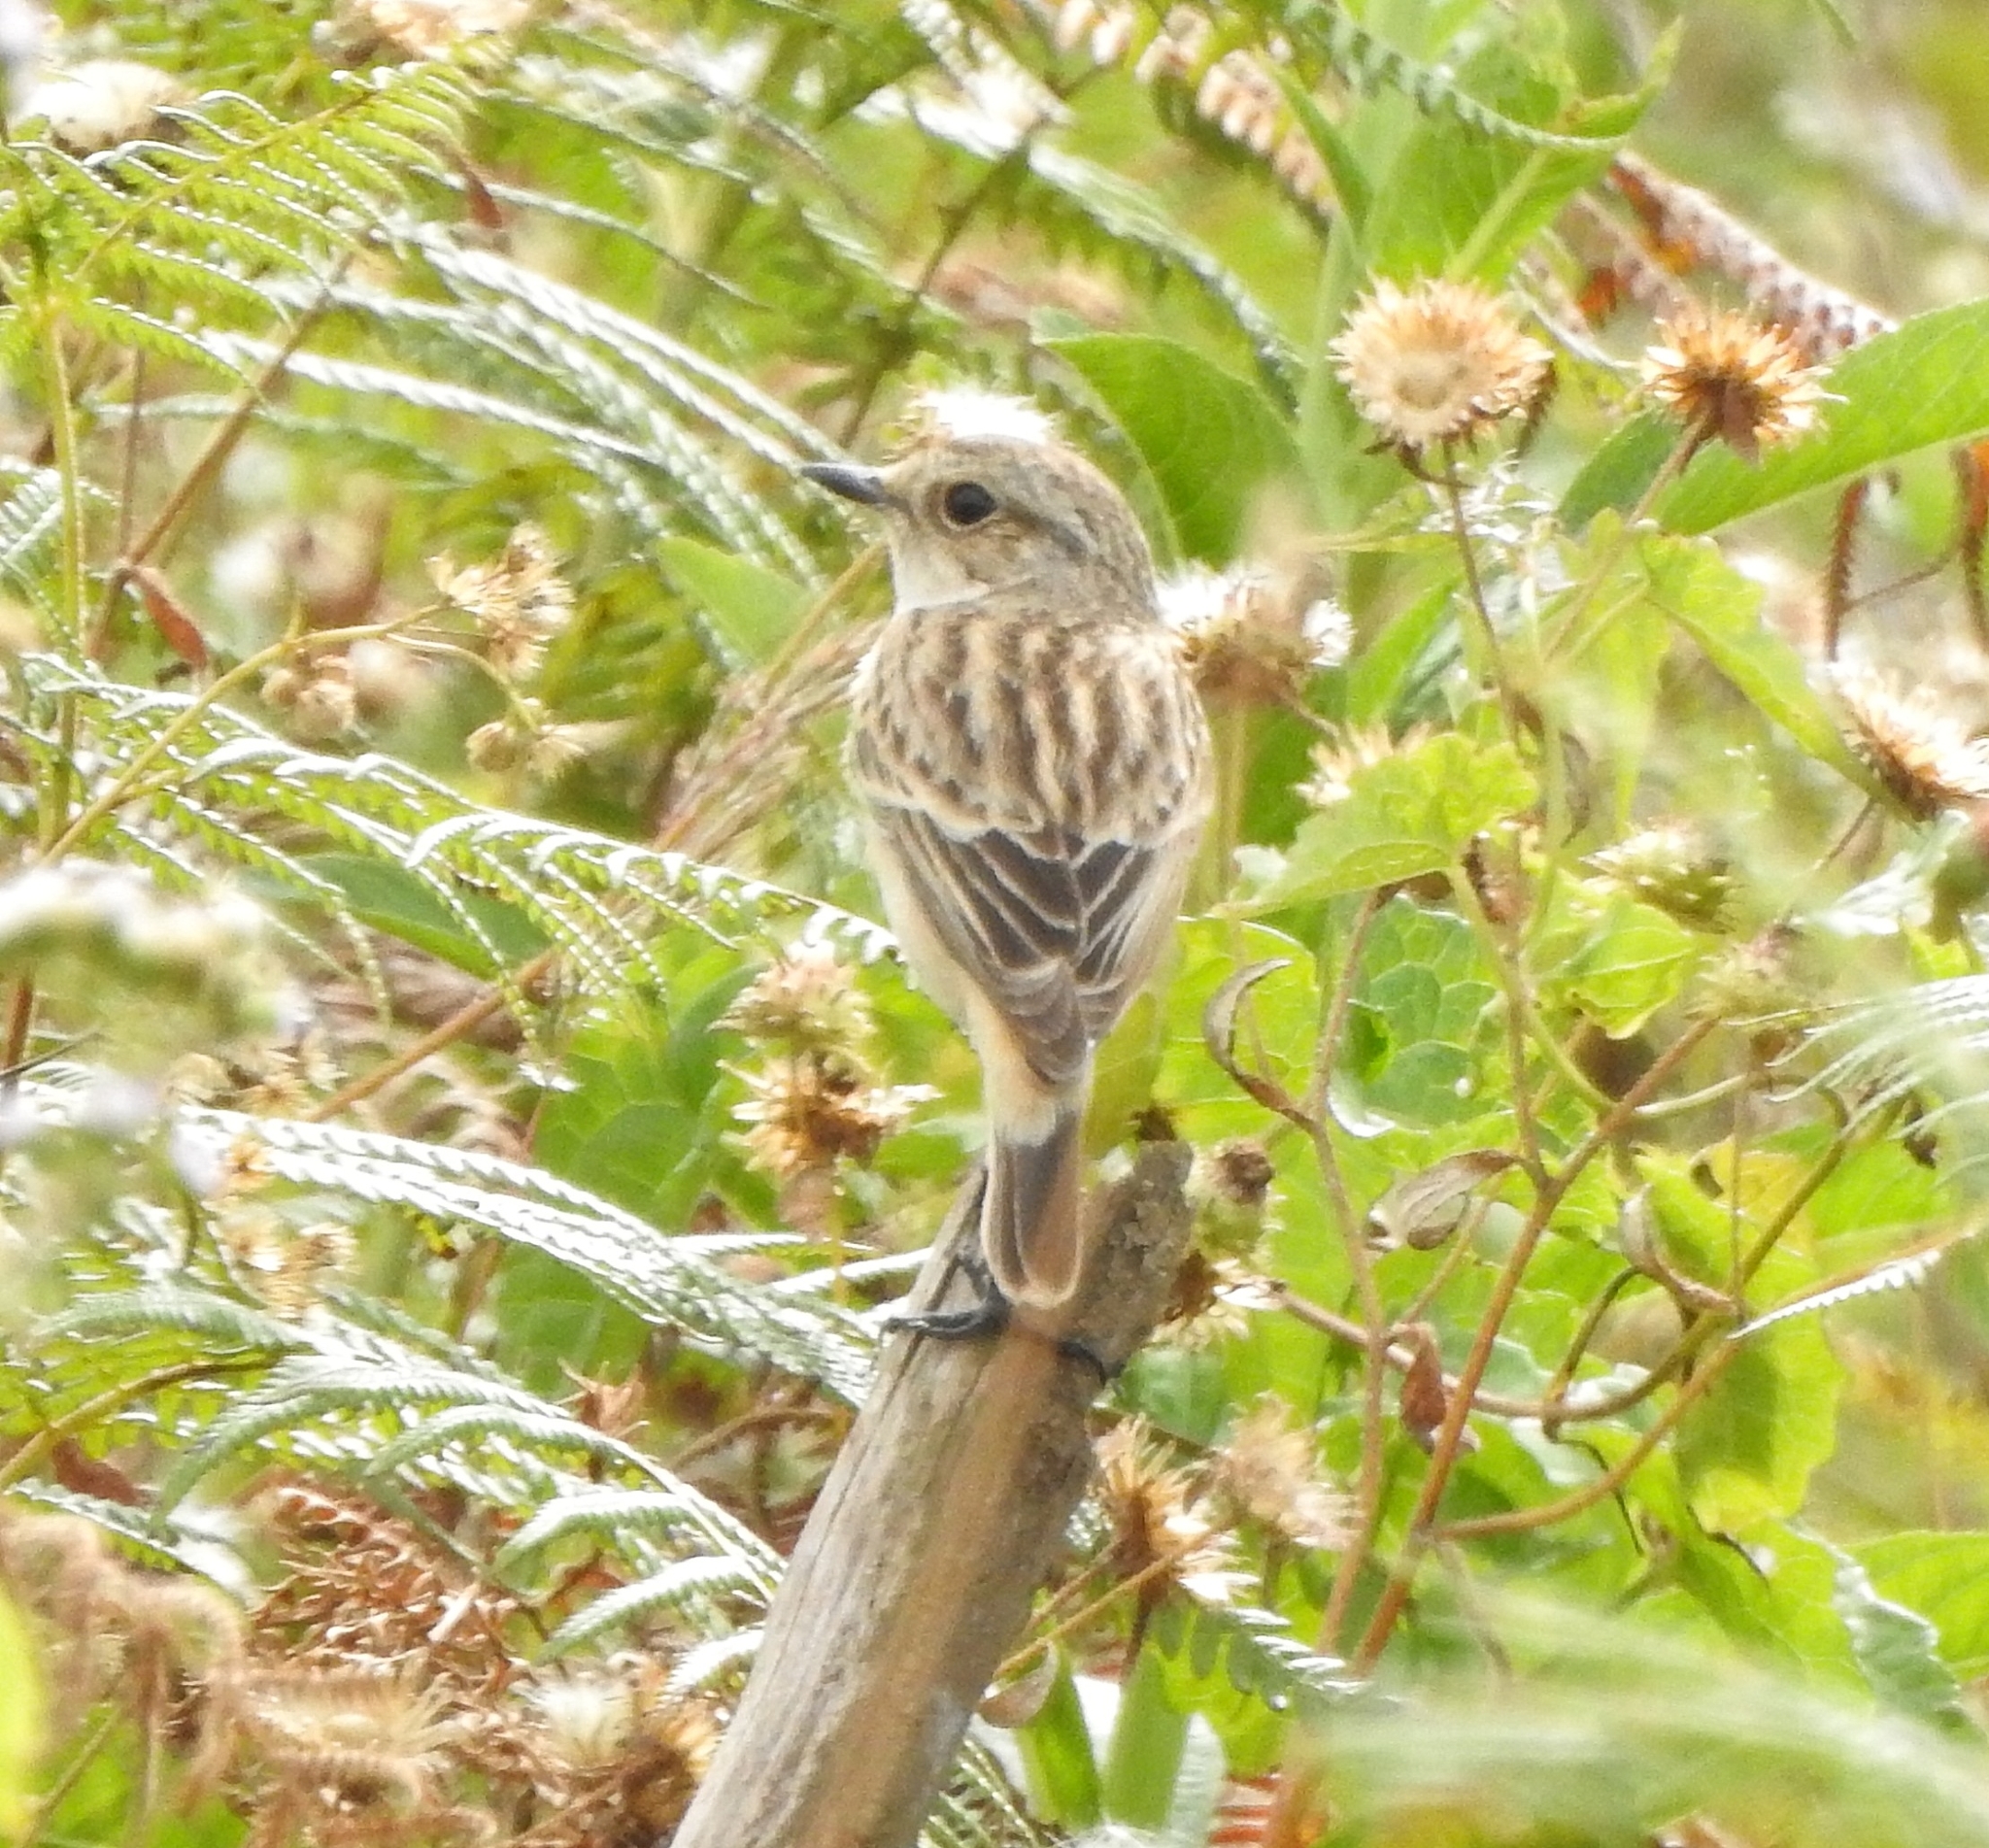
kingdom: Animalia
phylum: Chordata
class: Aves
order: Passeriformes
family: Muscicapidae
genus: Saxicola
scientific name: Saxicola maurus
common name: Siberian stonechat
